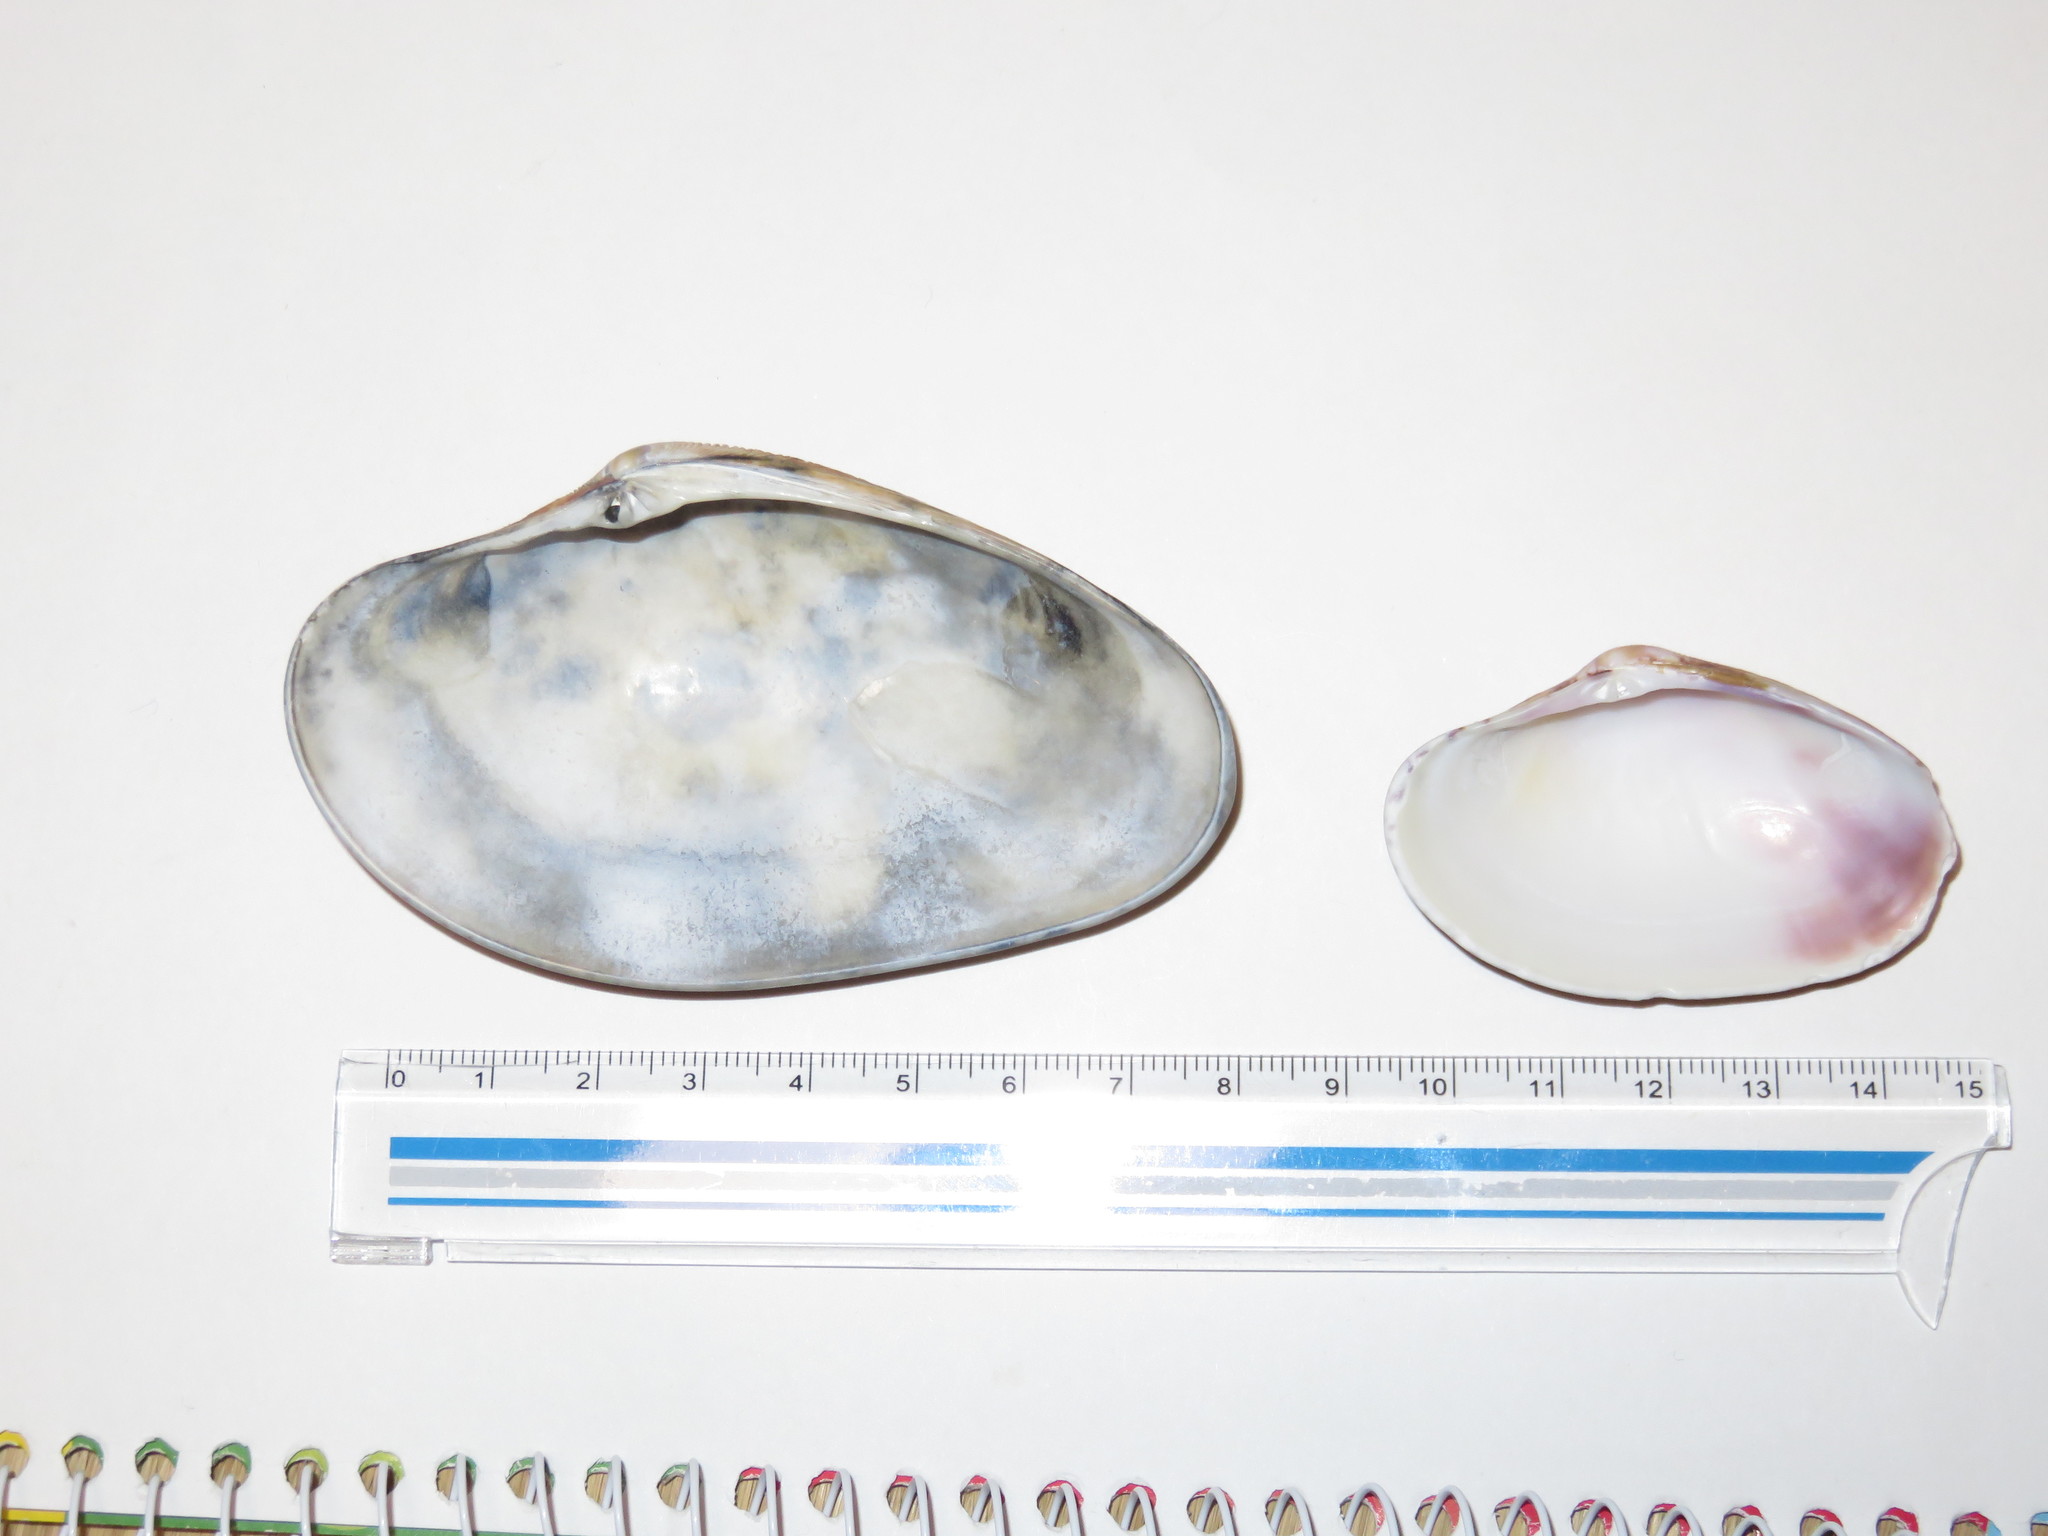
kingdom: Animalia
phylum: Mollusca
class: Bivalvia
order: Venerida
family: Veneridae
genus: Paphia
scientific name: Paphia amabilis
